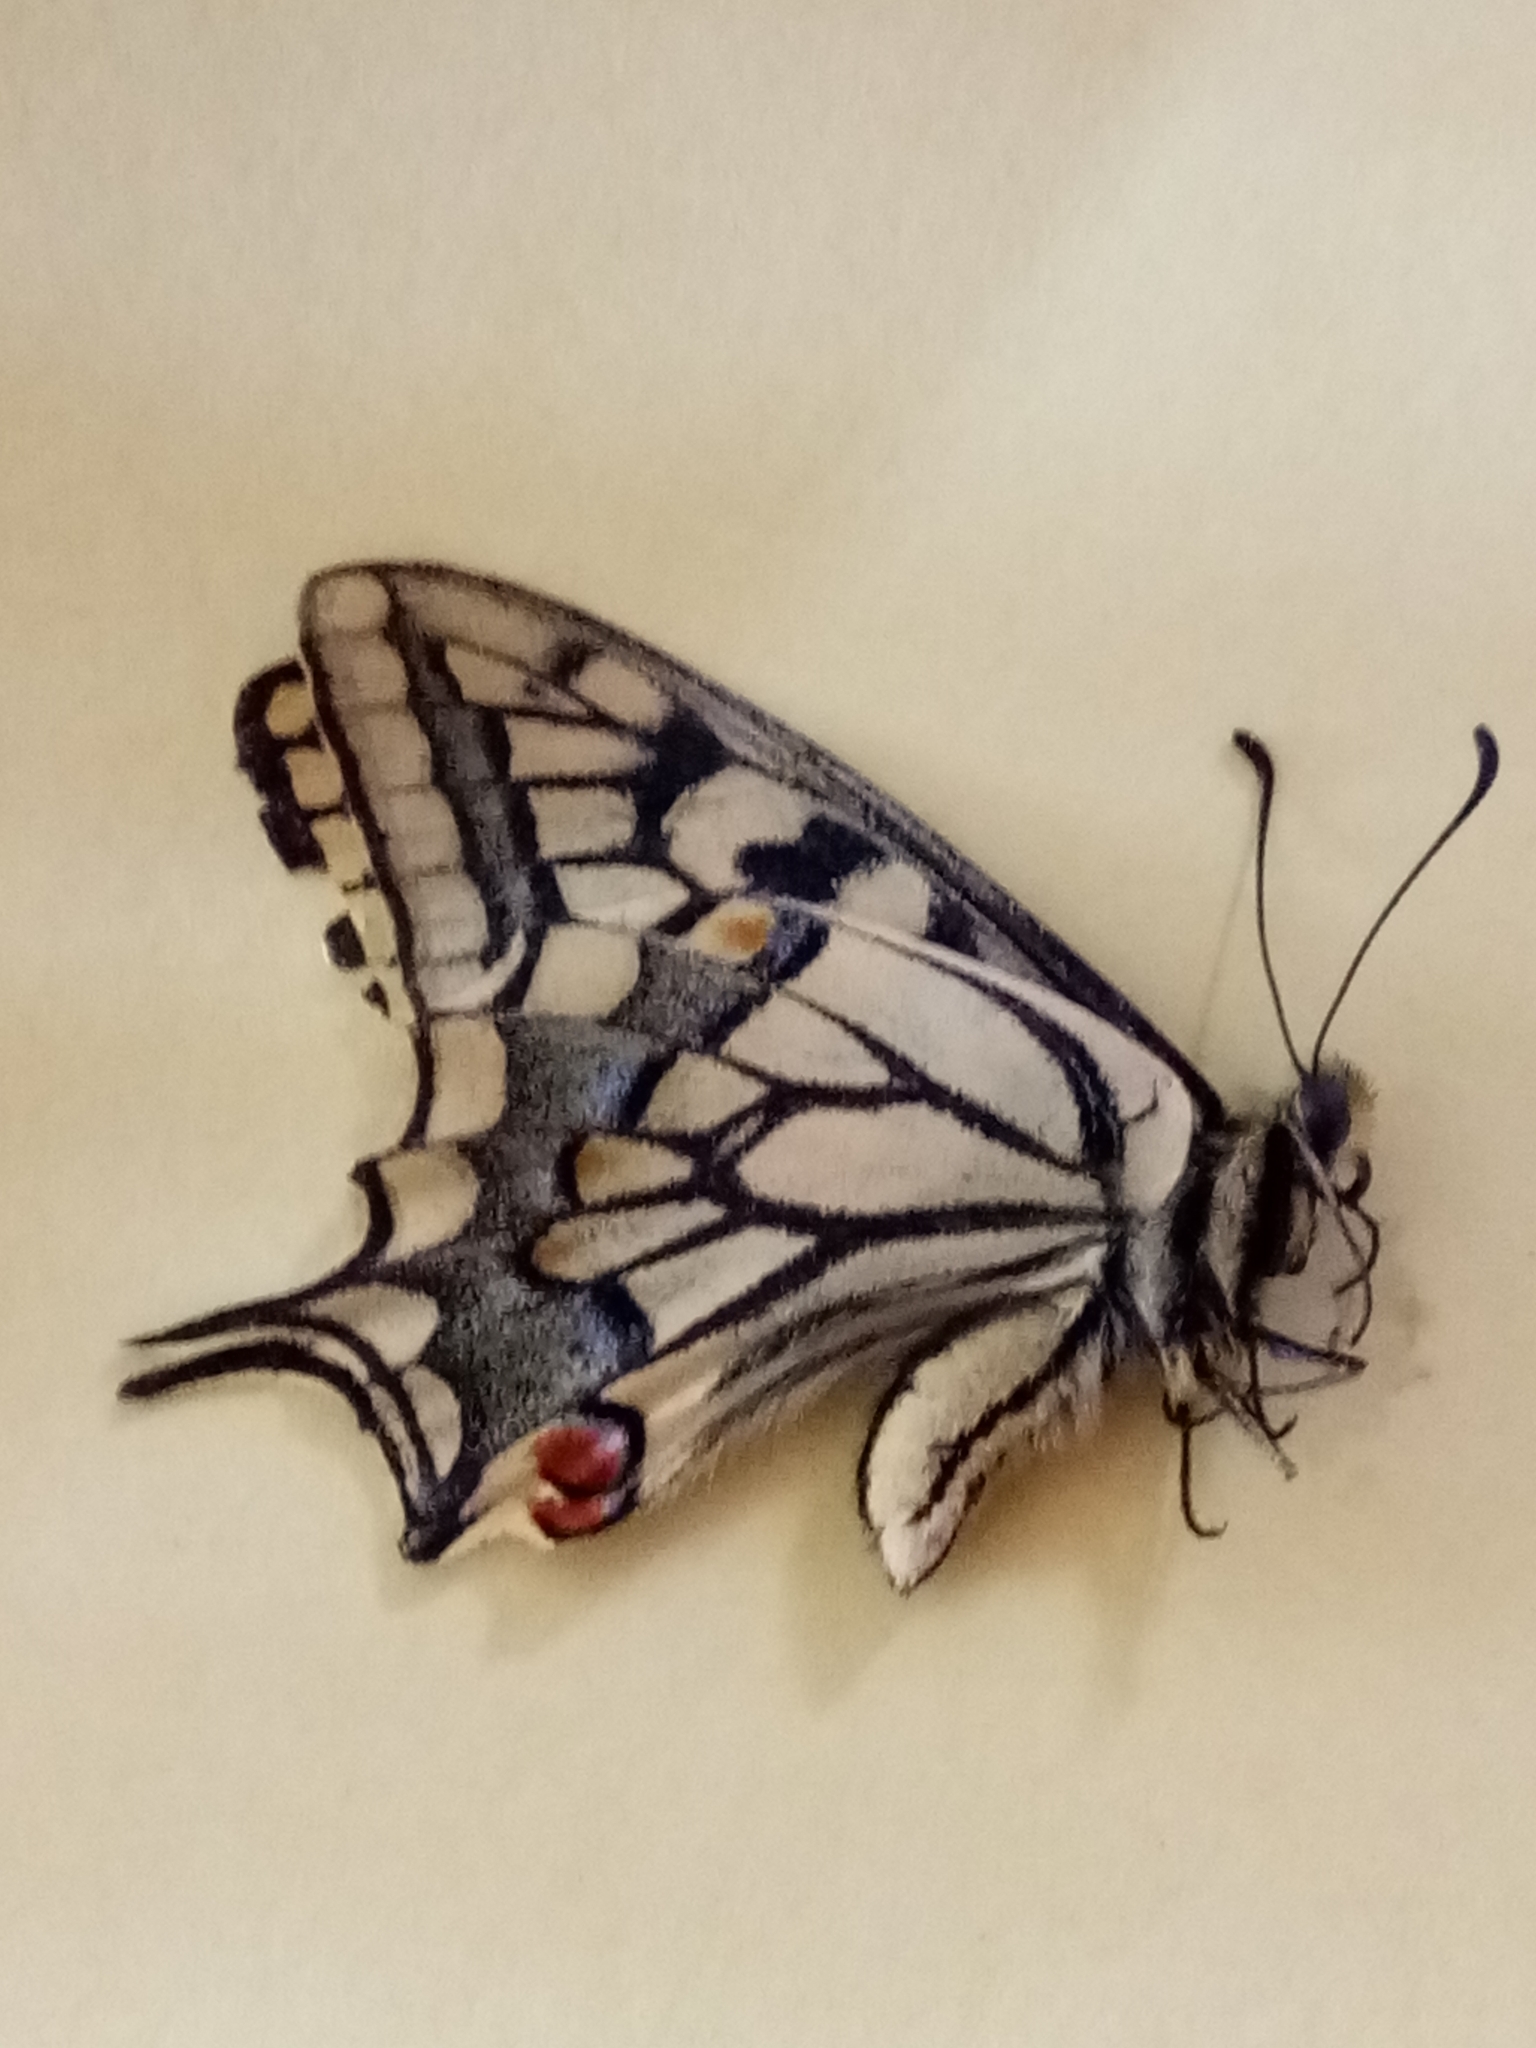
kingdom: Animalia
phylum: Arthropoda
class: Insecta
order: Lepidoptera
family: Papilionidae
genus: Papilio
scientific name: Papilio machaon
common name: Swallowtail
